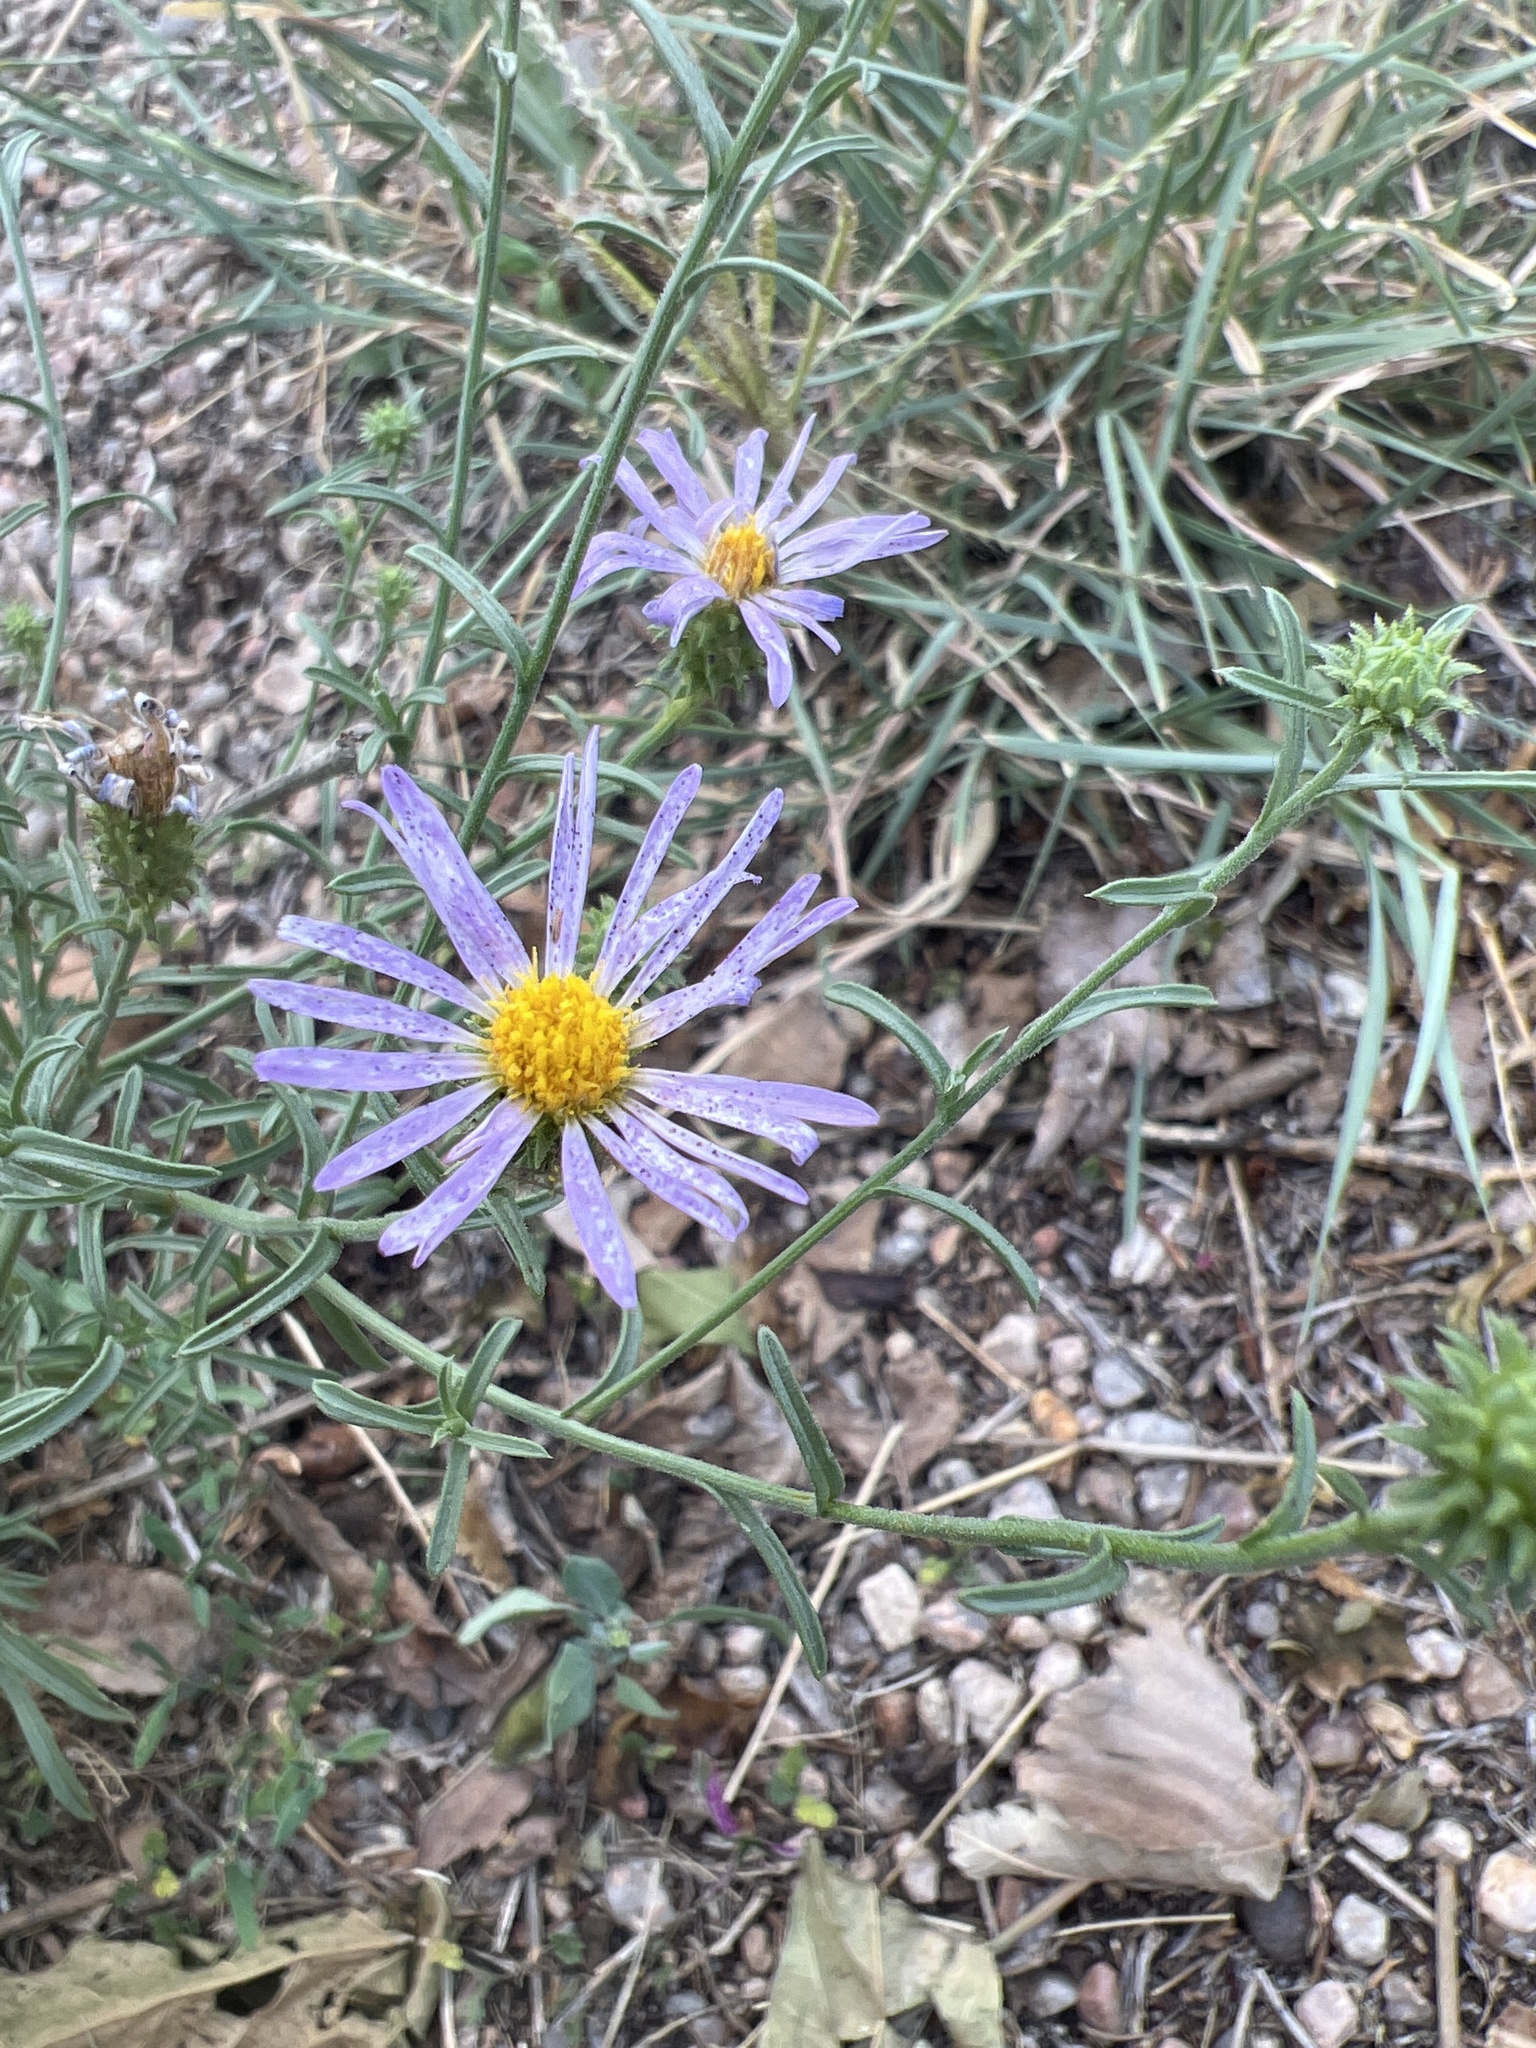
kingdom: Plantae
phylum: Tracheophyta
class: Magnoliopsida
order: Asterales
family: Asteraceae
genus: Dieteria
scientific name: Dieteria canescens
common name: Hoary-aster
